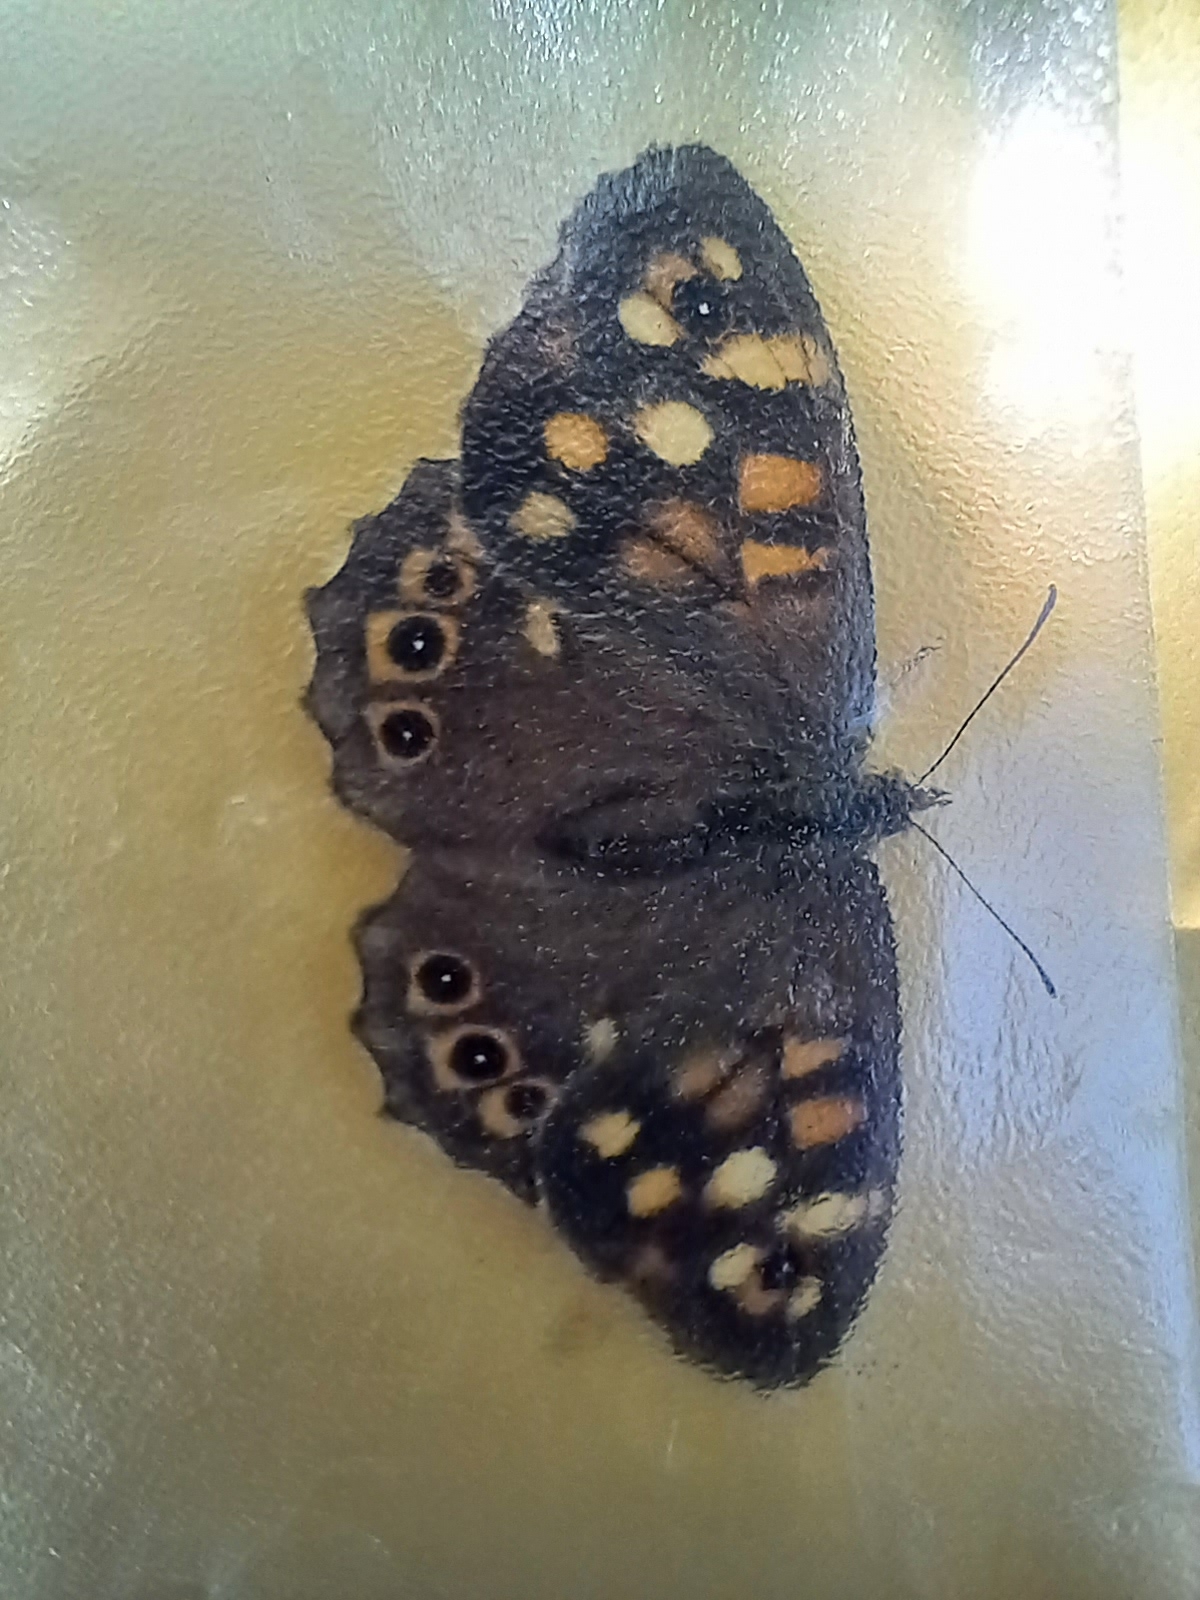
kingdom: Animalia
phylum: Arthropoda
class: Insecta
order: Lepidoptera
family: Nymphalidae
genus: Pararge
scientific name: Pararge aegeria
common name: Speckled wood
